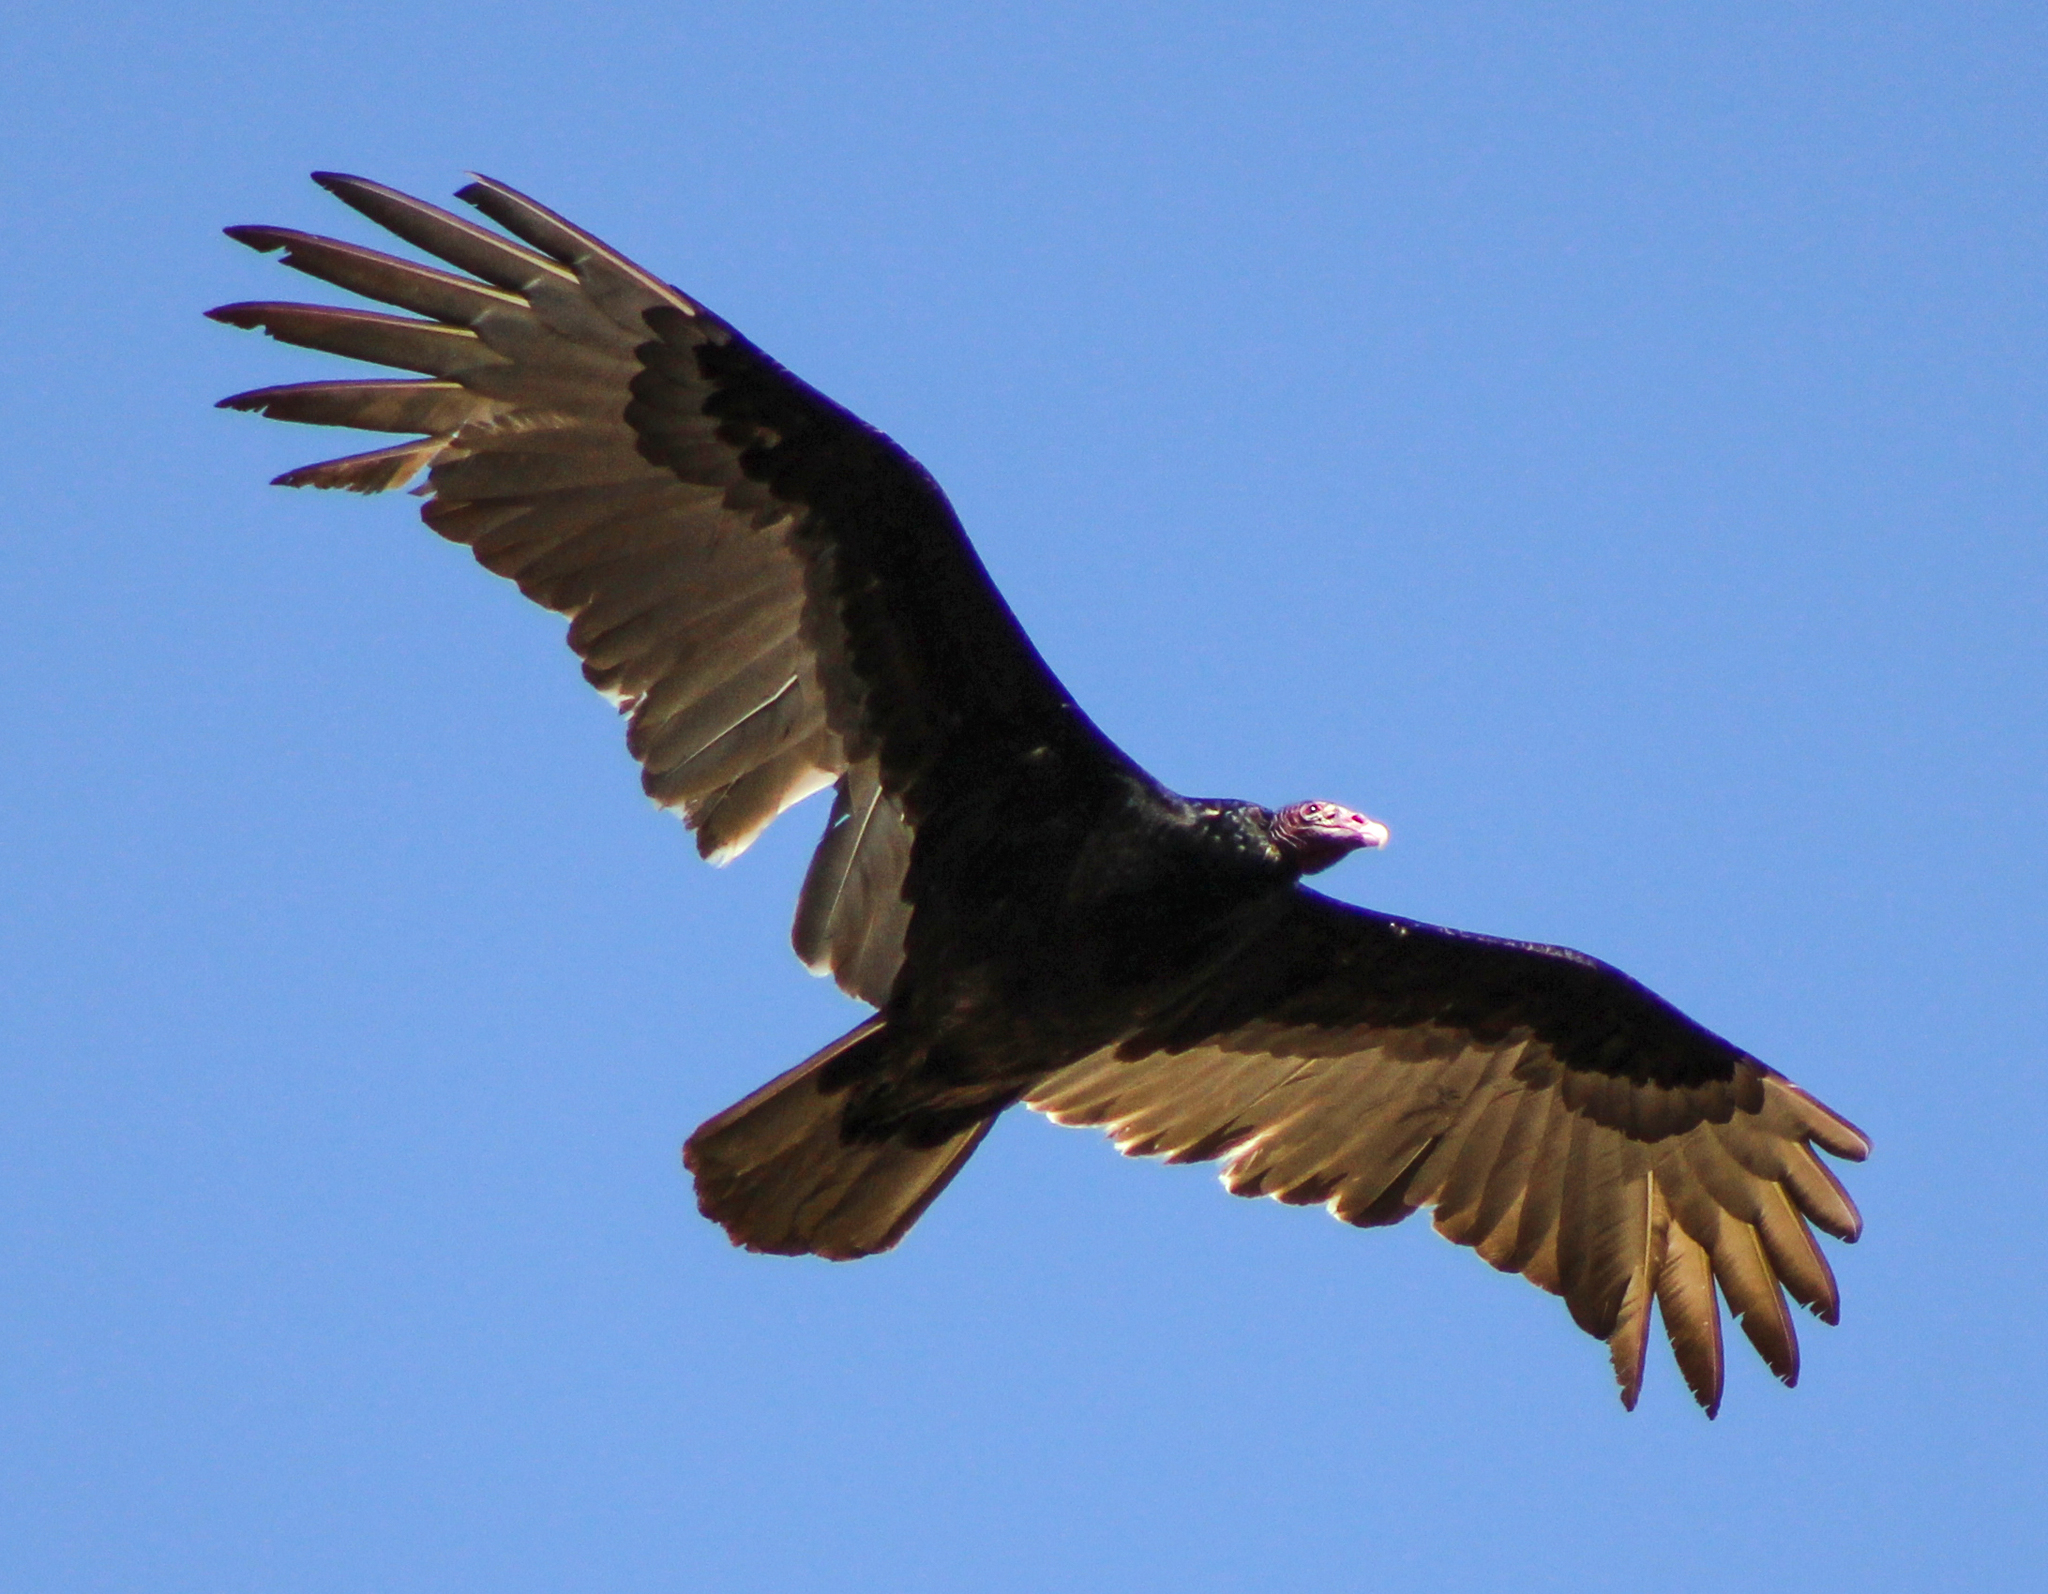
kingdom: Animalia
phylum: Chordata
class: Aves
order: Accipitriformes
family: Cathartidae
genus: Cathartes
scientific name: Cathartes aura
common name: Turkey vulture
